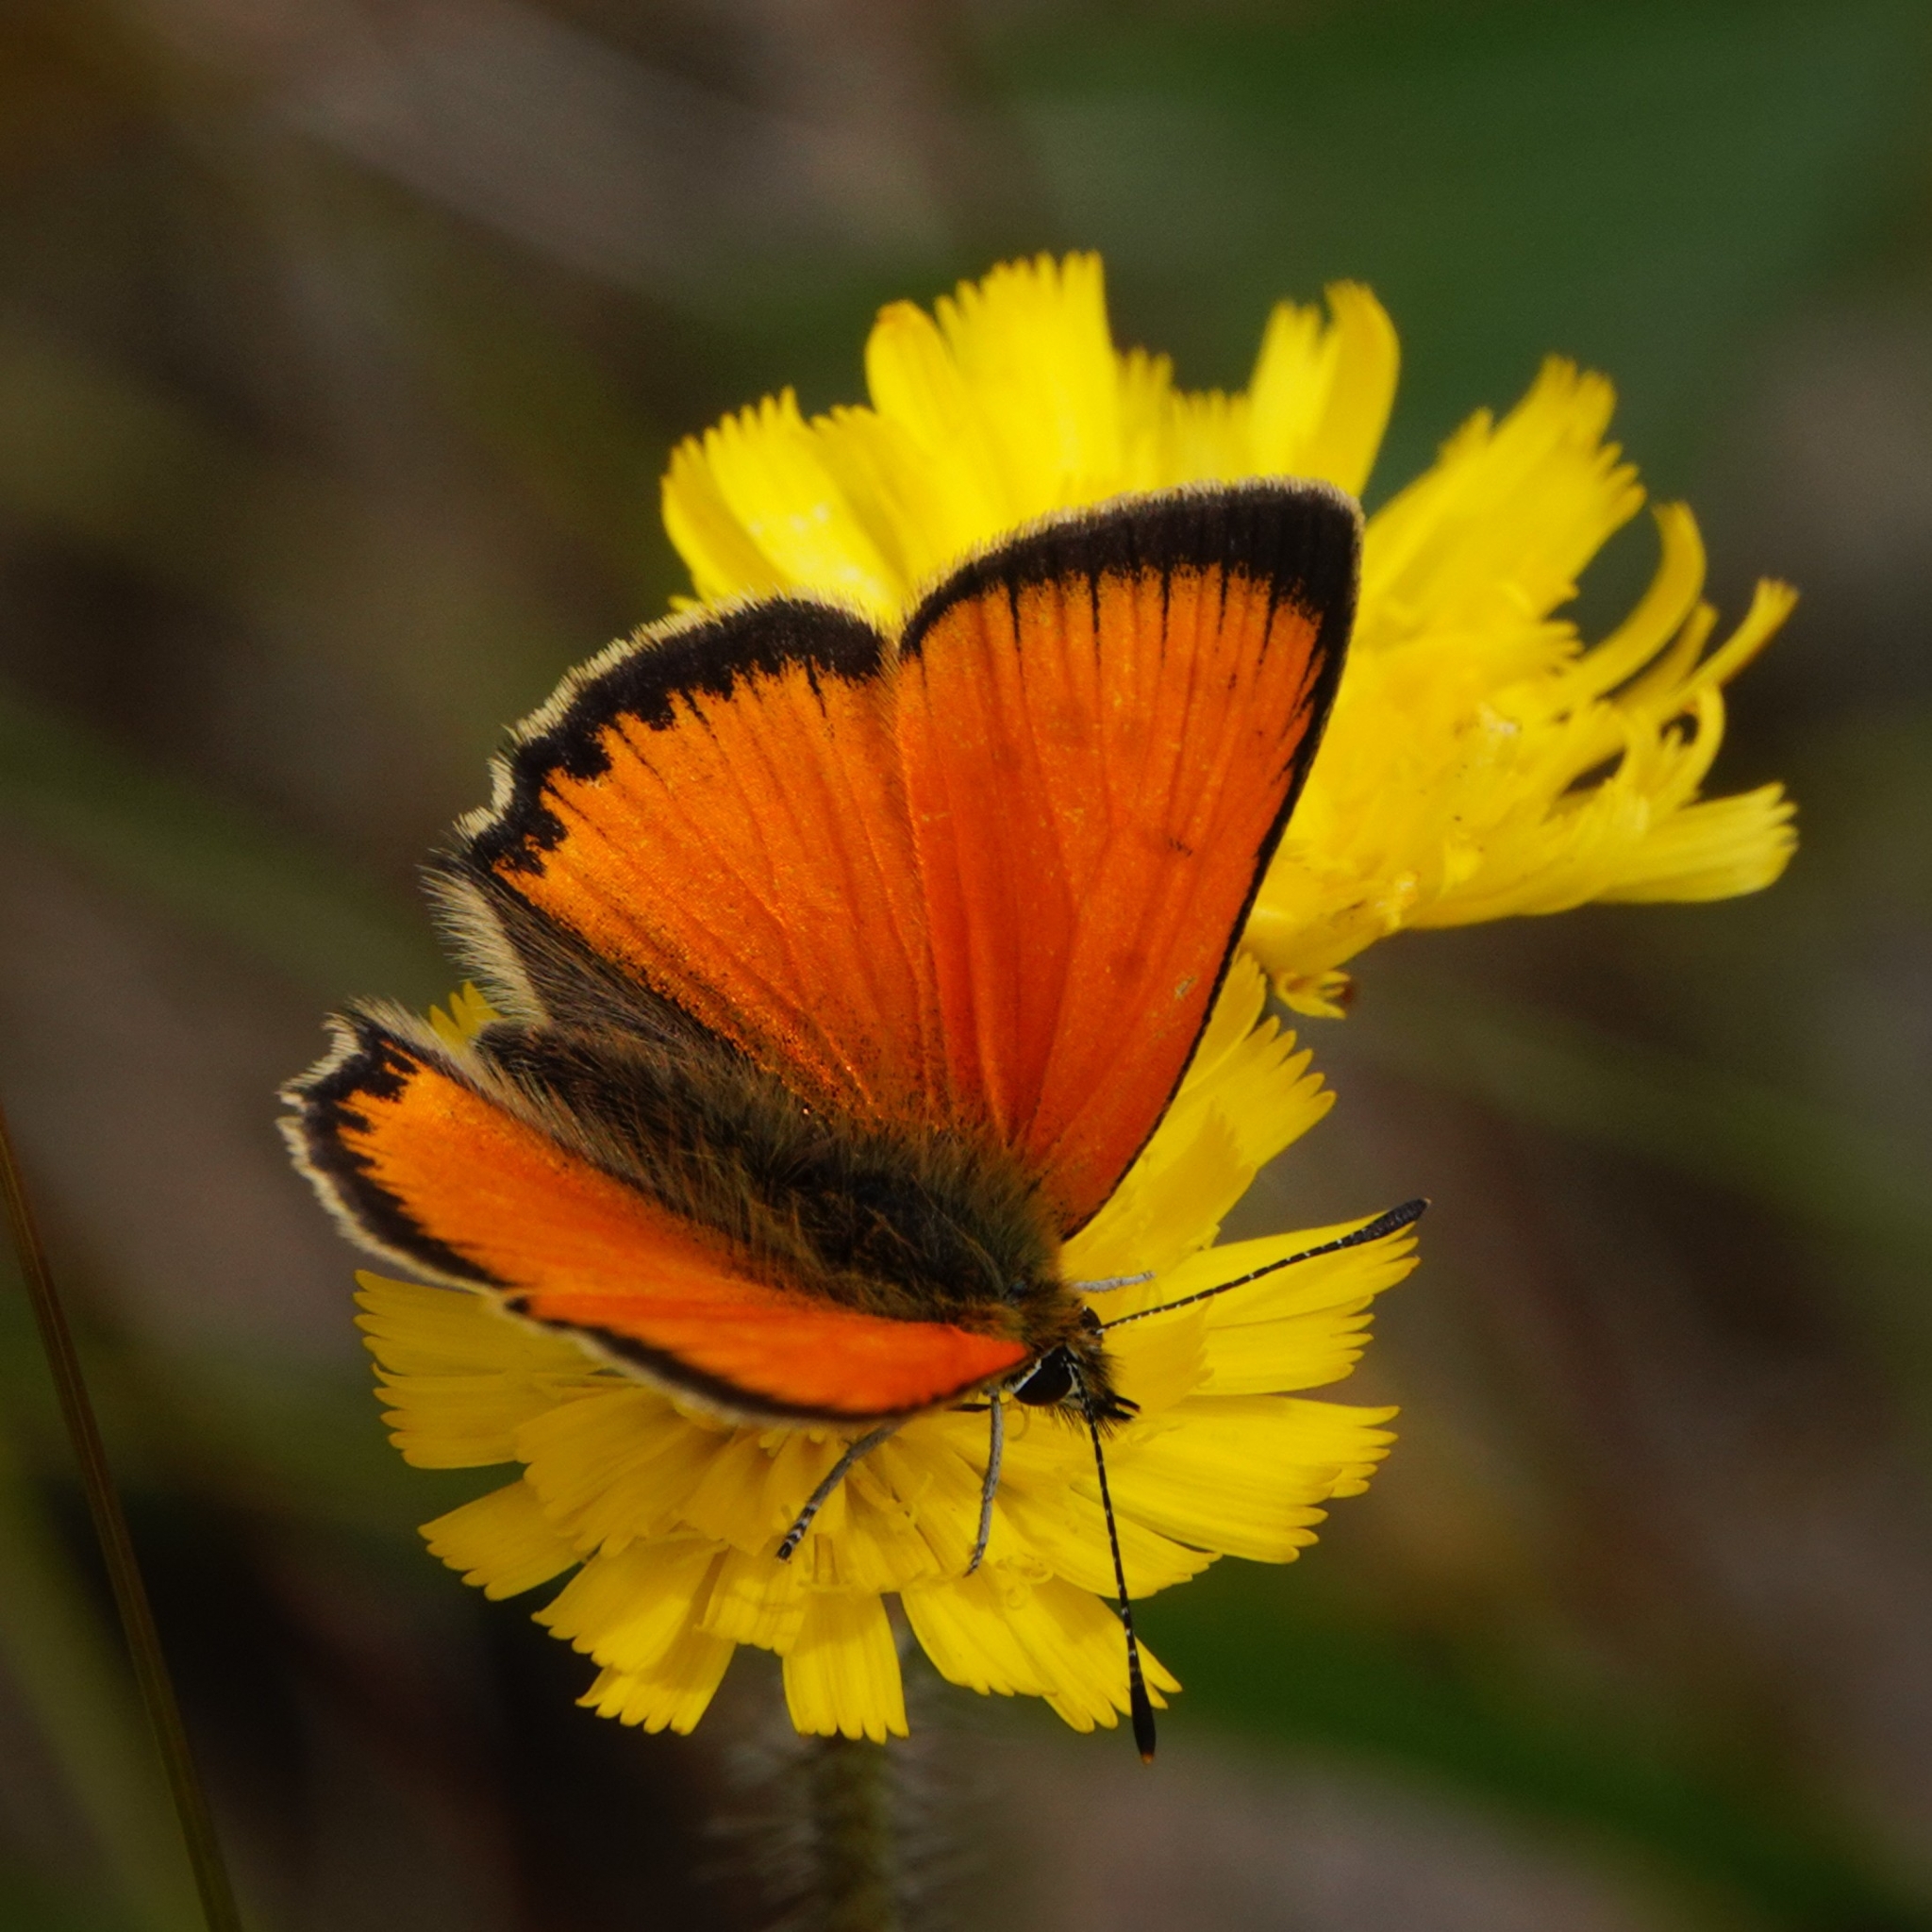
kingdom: Animalia
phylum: Arthropoda
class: Insecta
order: Lepidoptera
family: Lycaenidae
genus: Lycaena
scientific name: Lycaena virgaureae
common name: Scarce copper
